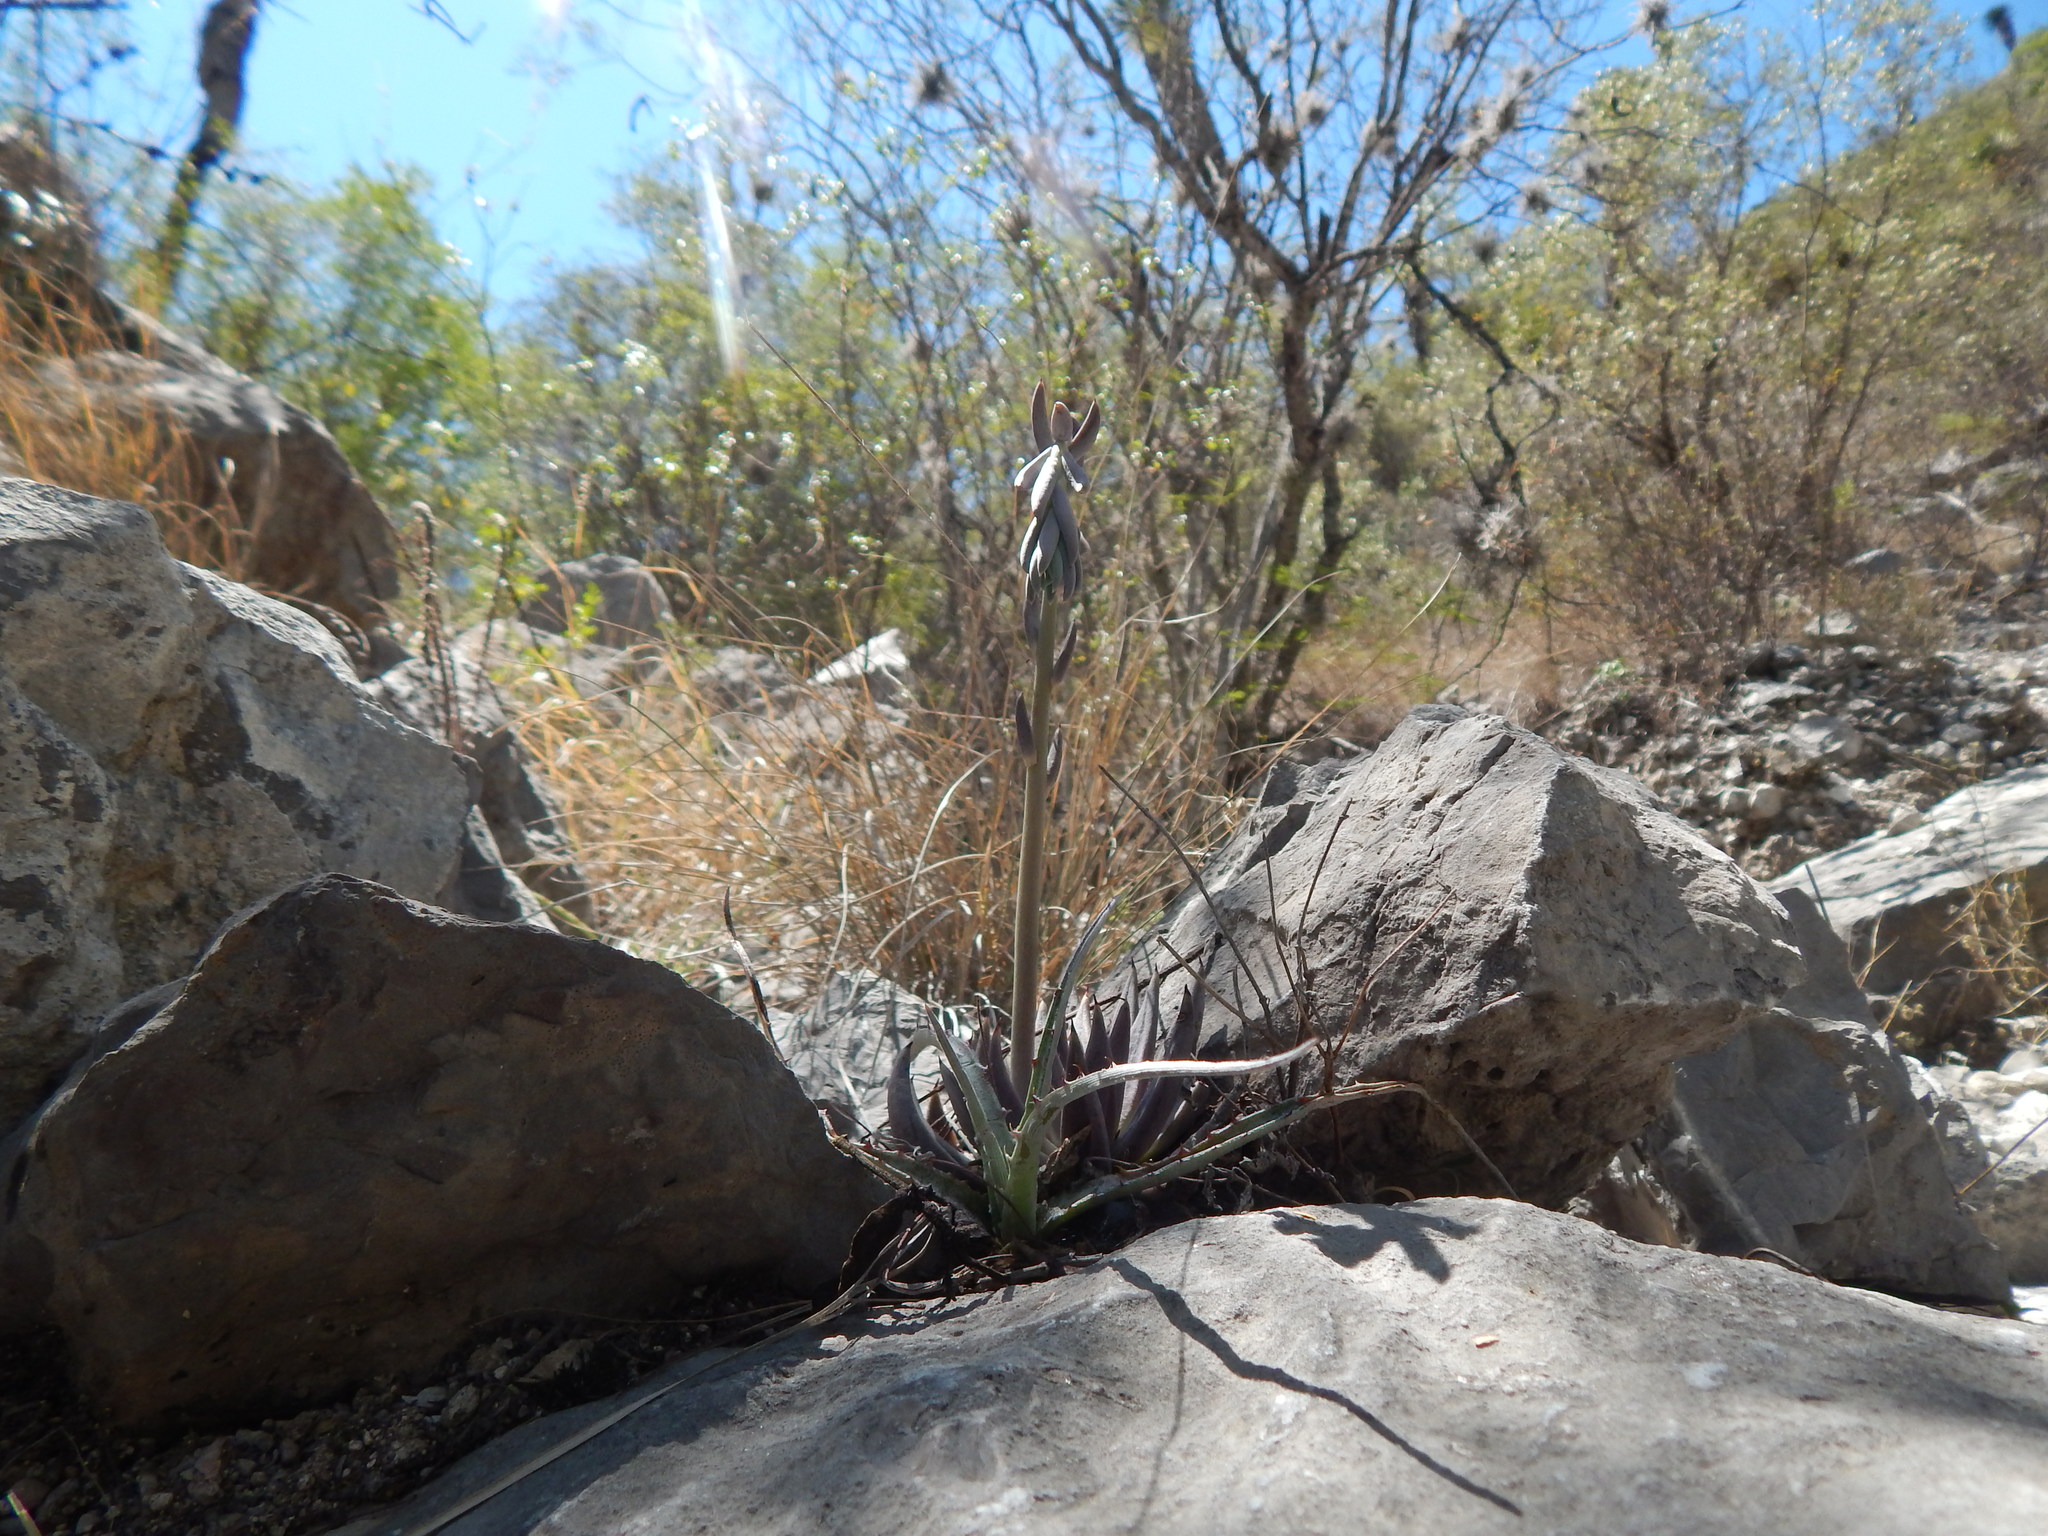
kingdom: Plantae
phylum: Tracheophyta
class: Magnoliopsida
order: Saxifragales
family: Crassulaceae
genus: Echeveria
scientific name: Echeveria unguiculata
